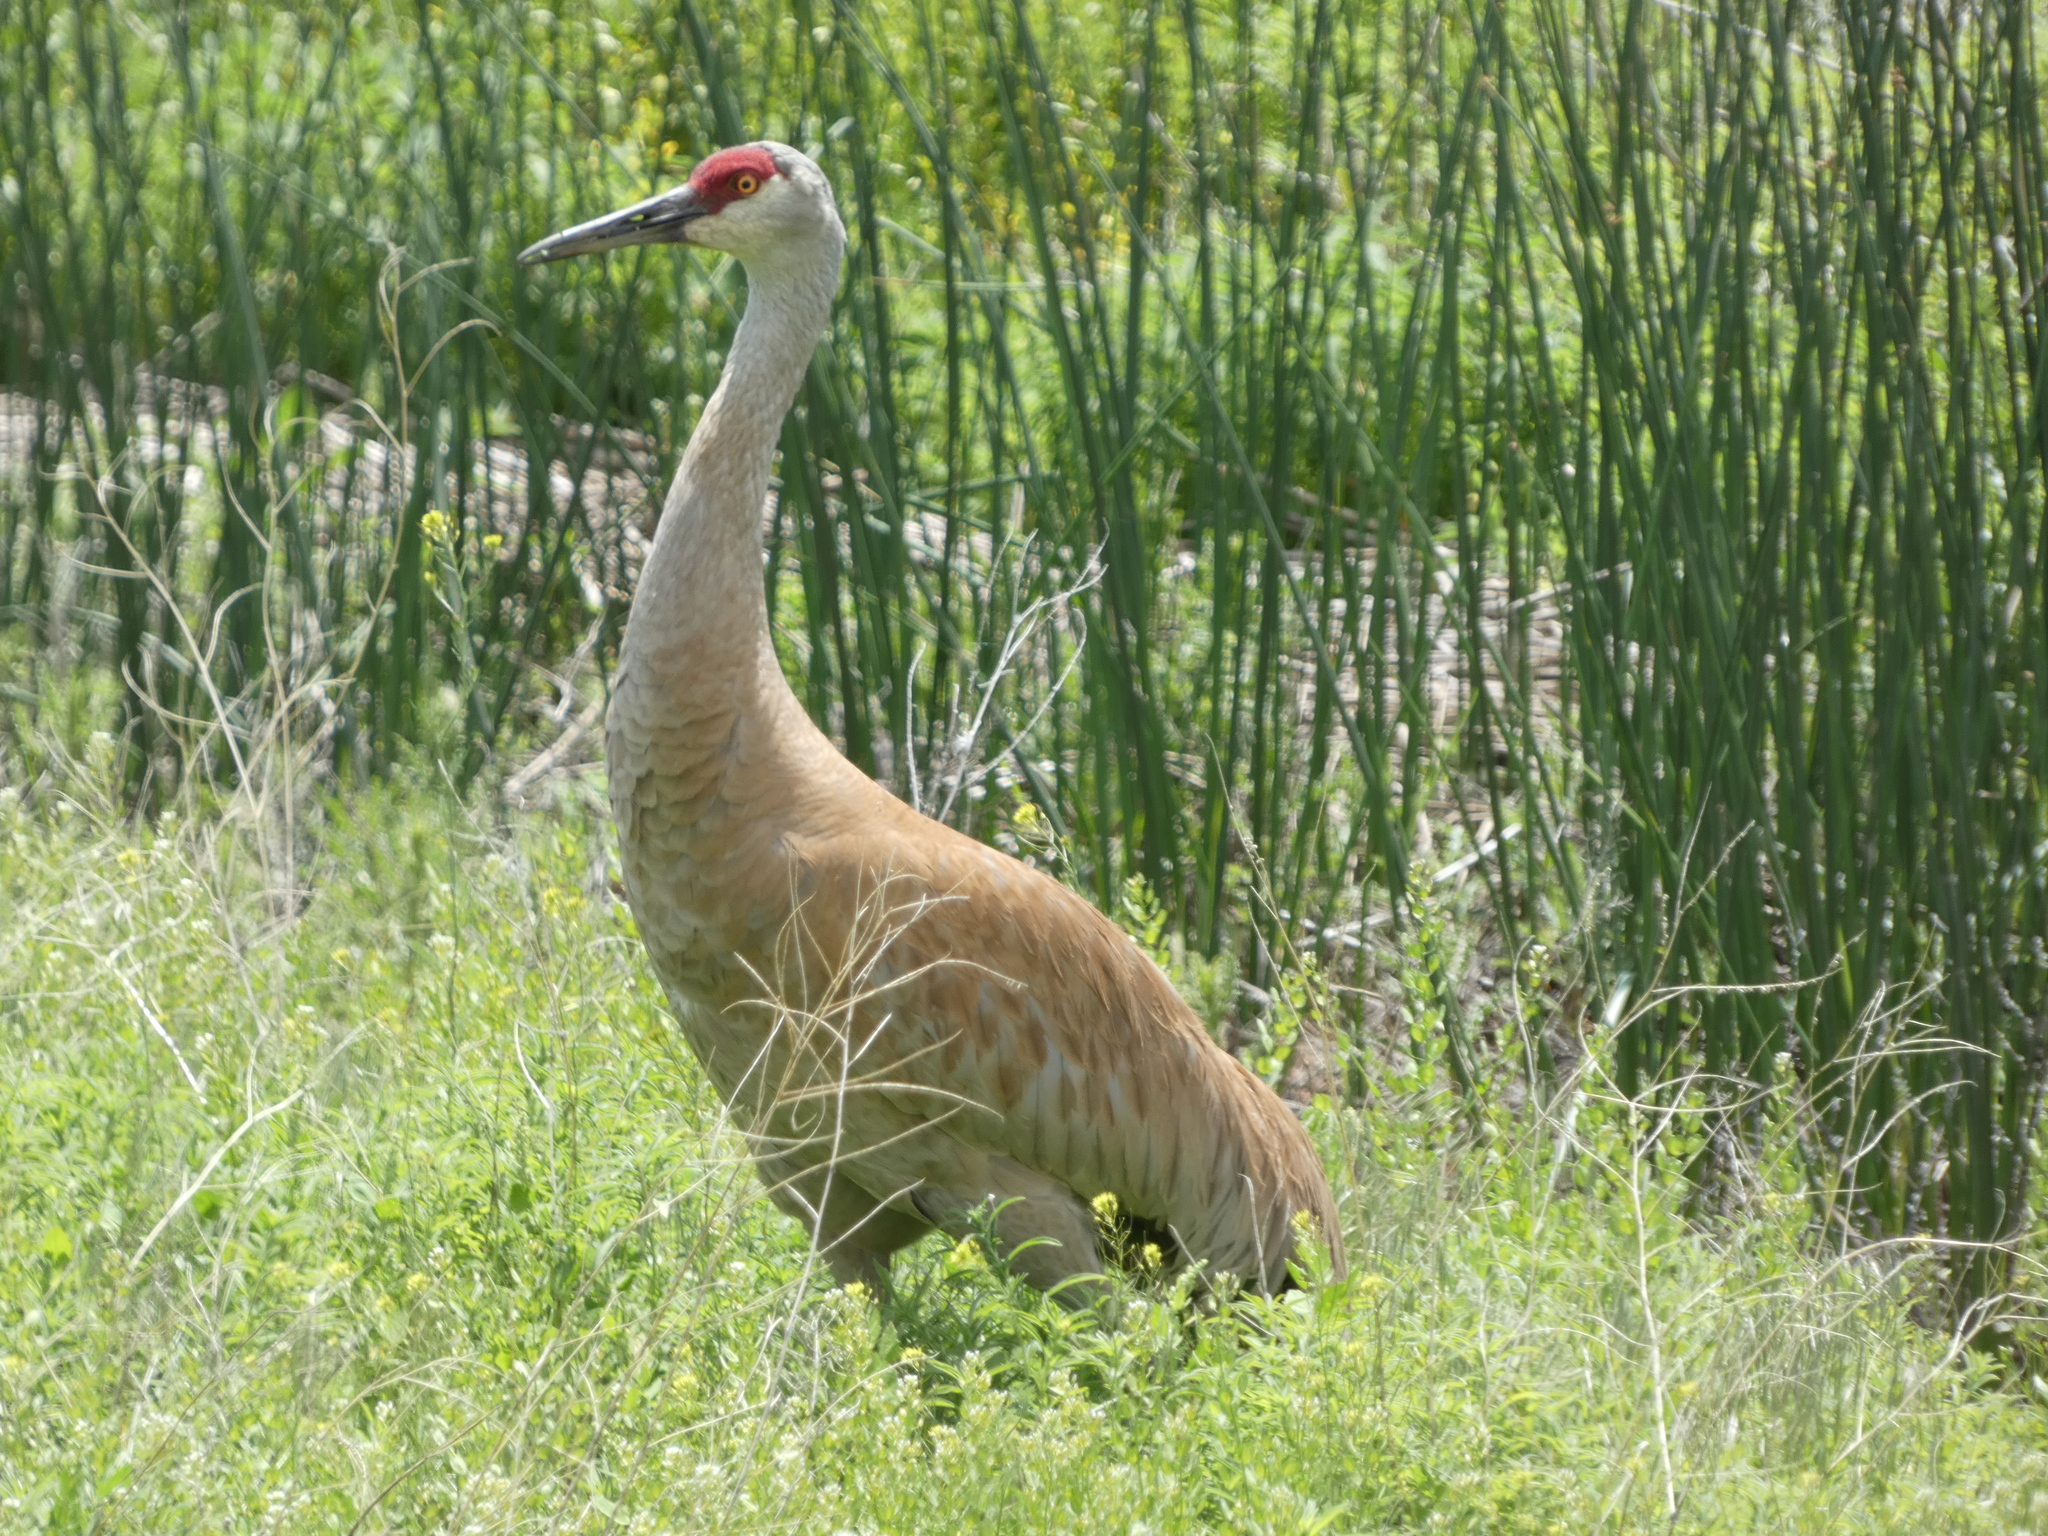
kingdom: Animalia
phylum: Chordata
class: Aves
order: Gruiformes
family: Gruidae
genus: Grus
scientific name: Grus canadensis
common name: Sandhill crane
